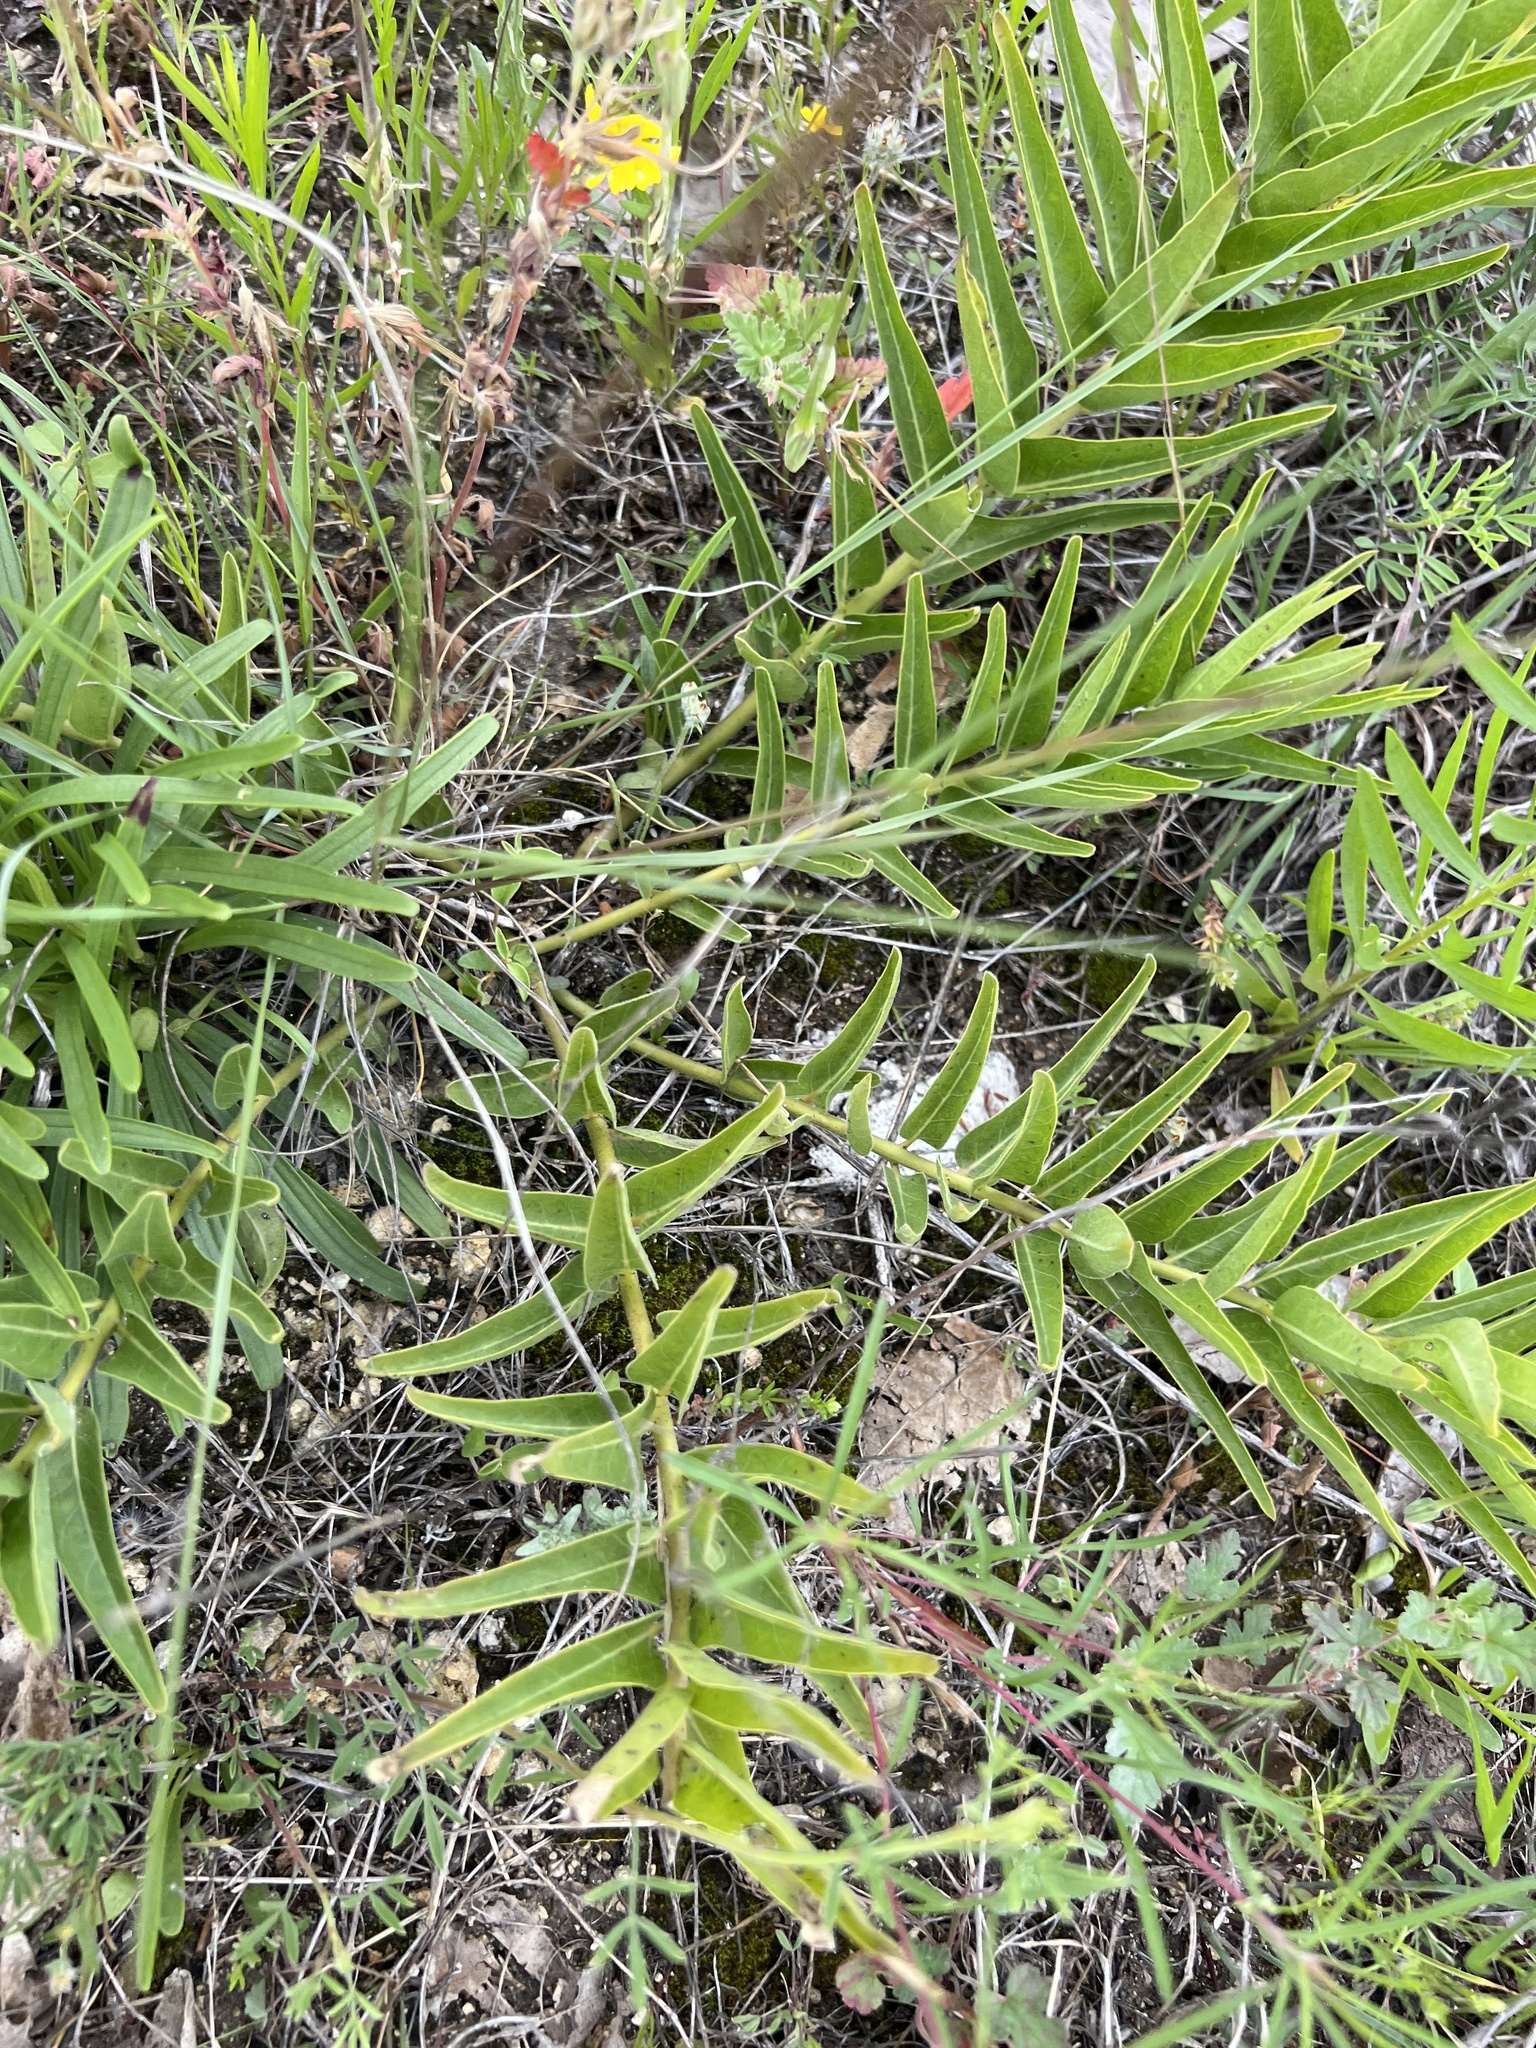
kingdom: Plantae
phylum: Tracheophyta
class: Magnoliopsida
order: Gentianales
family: Apocynaceae
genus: Asclepias
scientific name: Asclepias asperula
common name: Antelope horns
